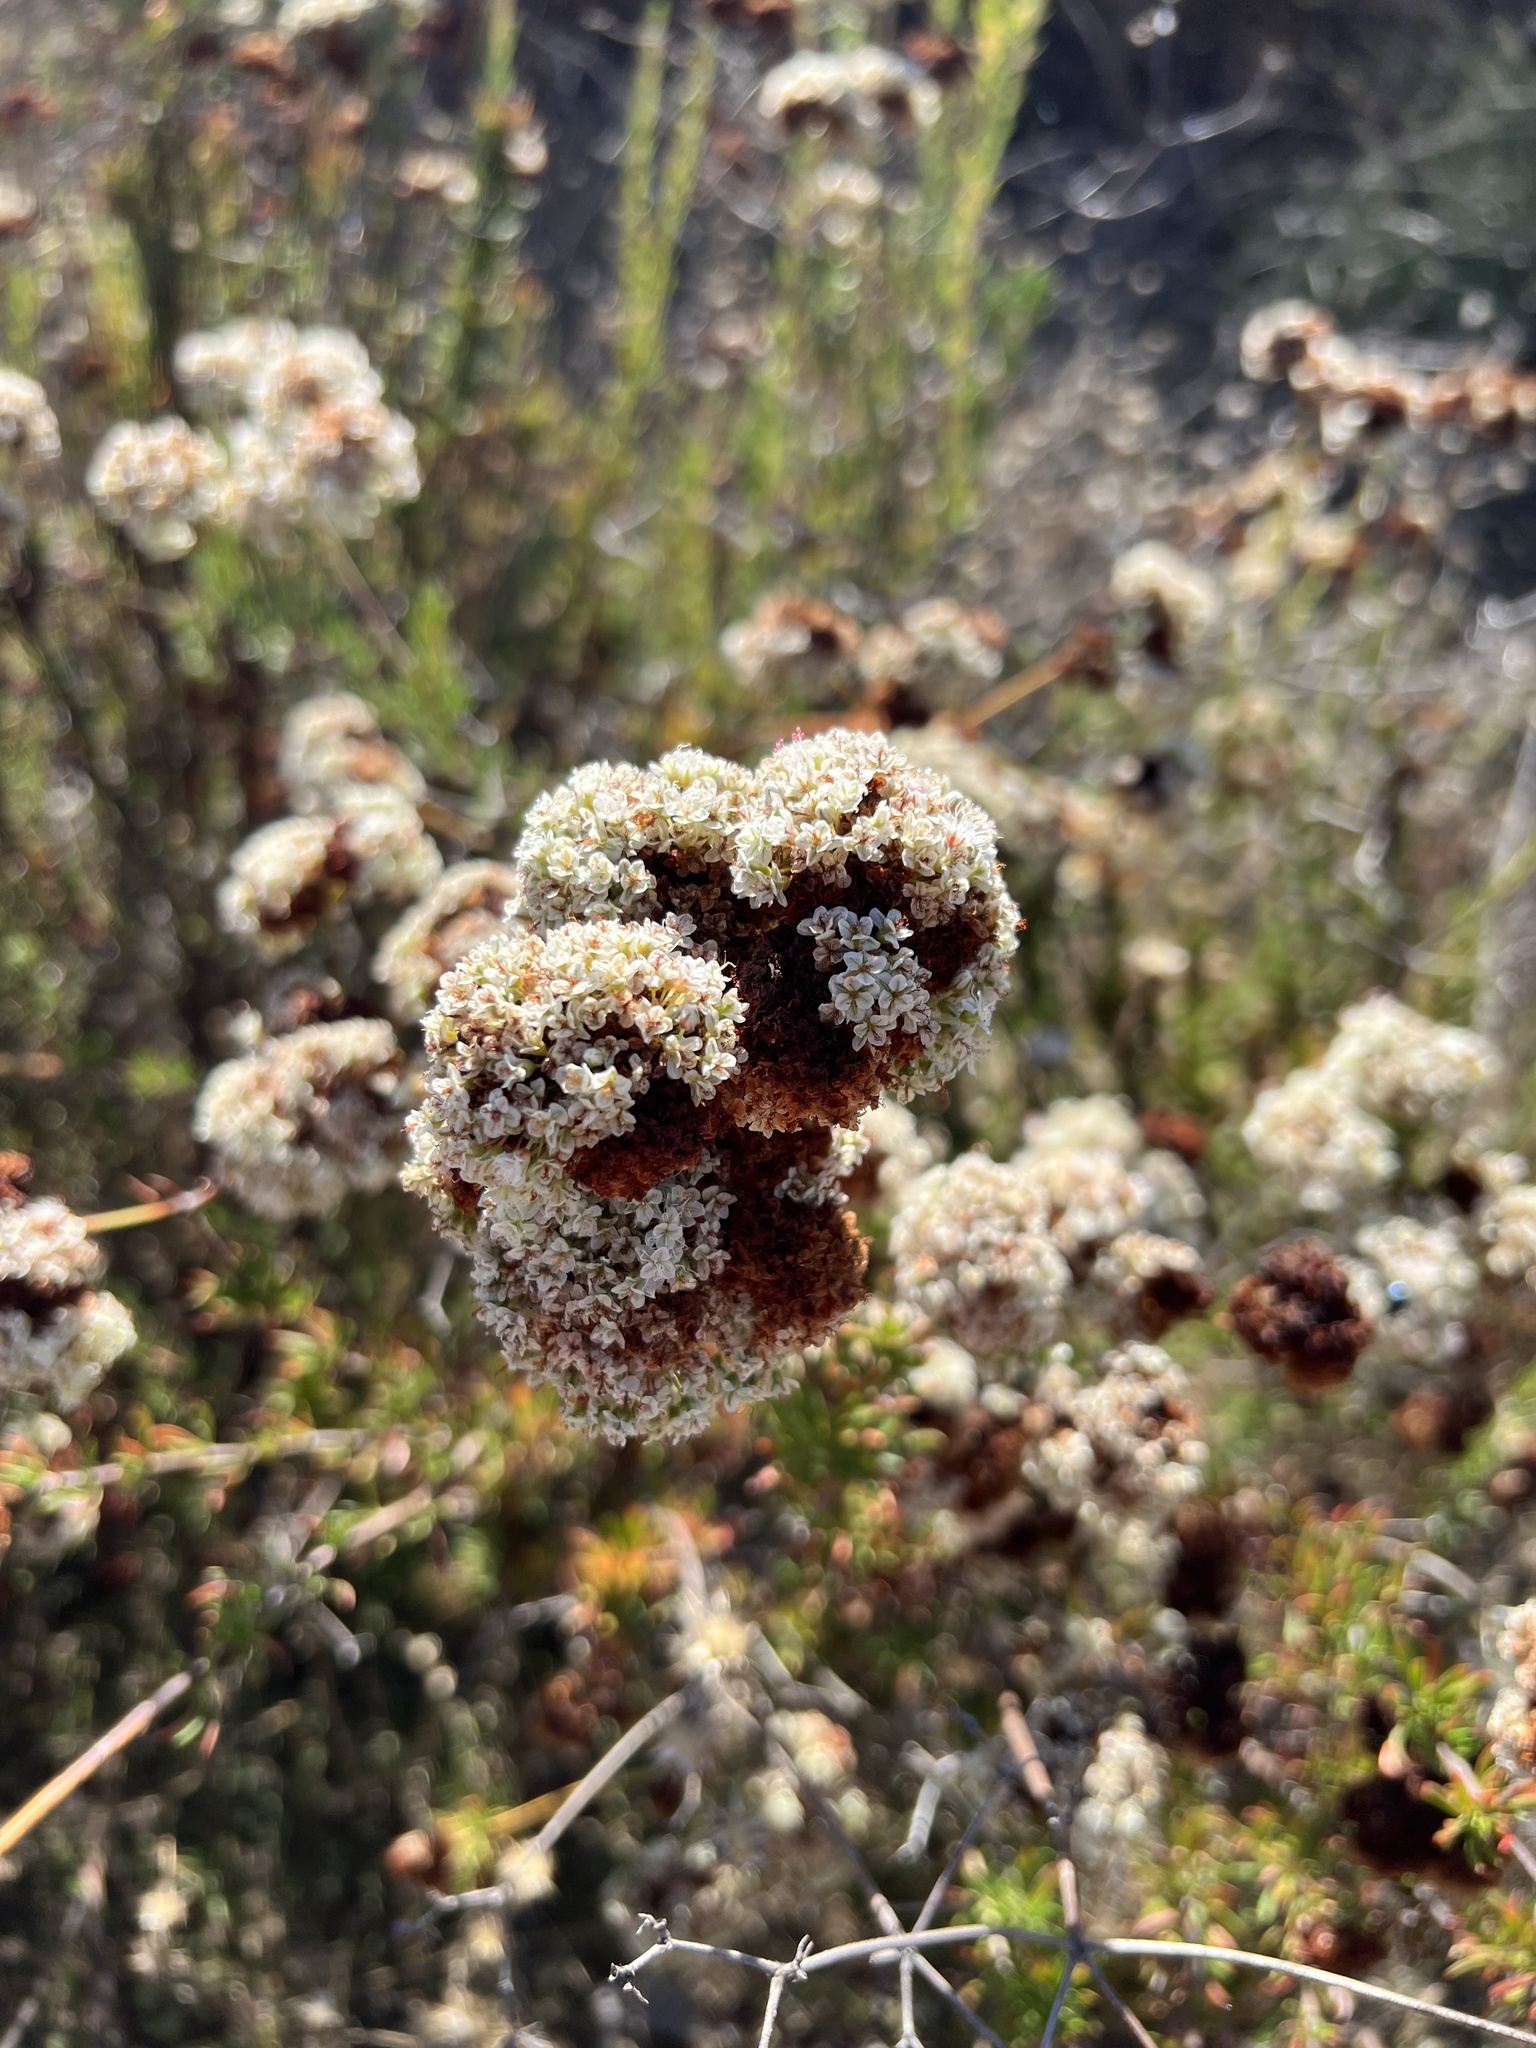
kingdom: Plantae
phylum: Tracheophyta
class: Magnoliopsida
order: Caryophyllales
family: Polygonaceae
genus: Eriogonum
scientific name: Eriogonum fasciculatum
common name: California wild buckwheat
